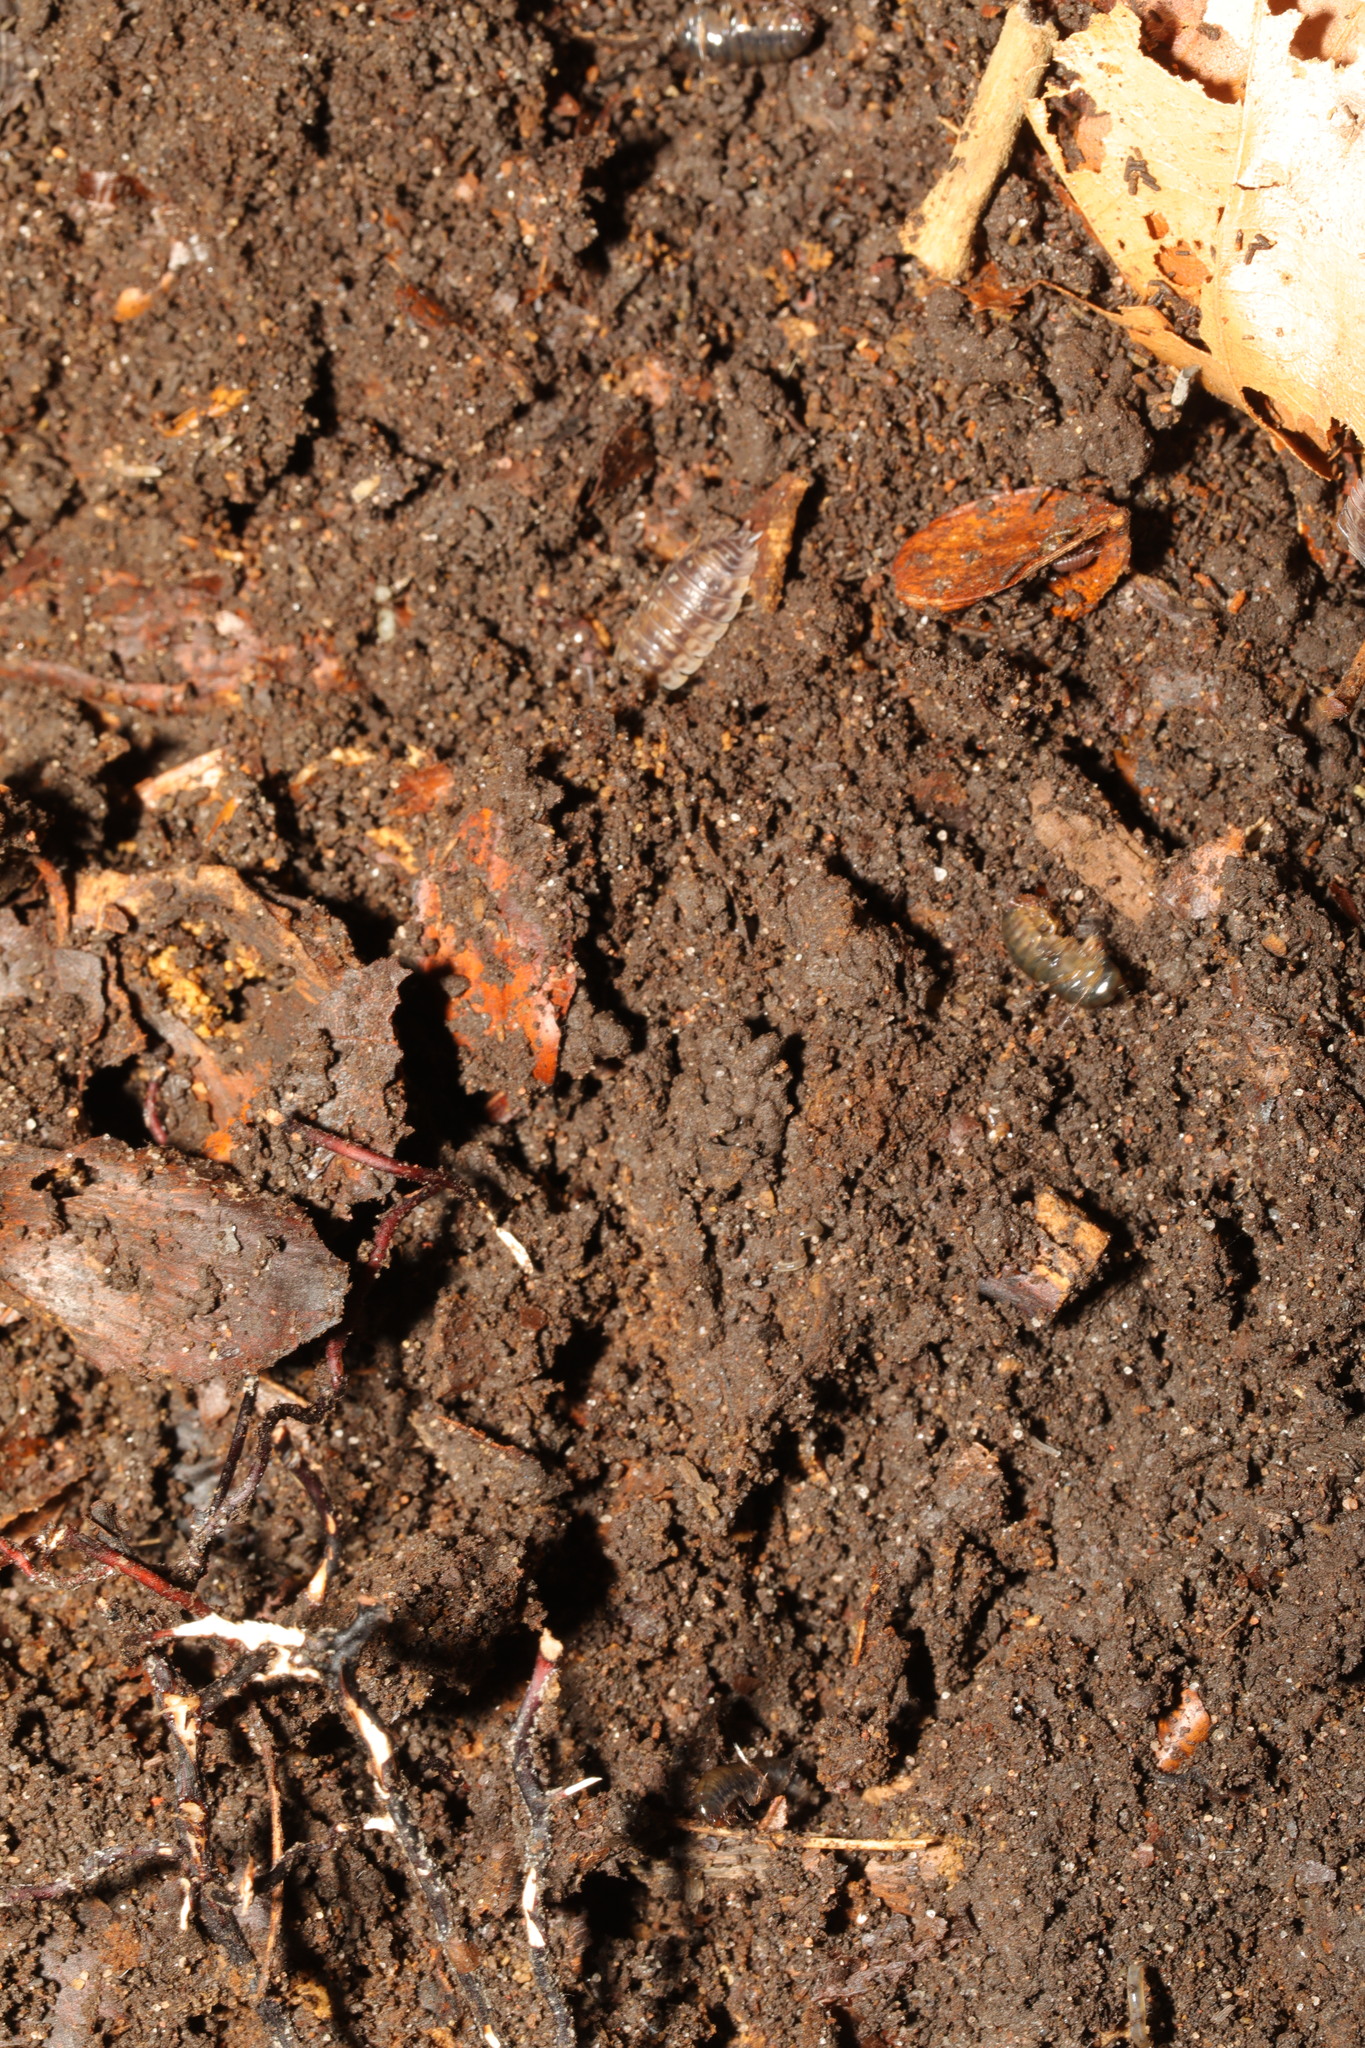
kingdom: Animalia
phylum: Arthropoda
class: Malacostraca
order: Amphipoda
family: Arcitalitridae
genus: Arcitalitrus
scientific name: Arcitalitrus dorrieni
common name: Landhopper
